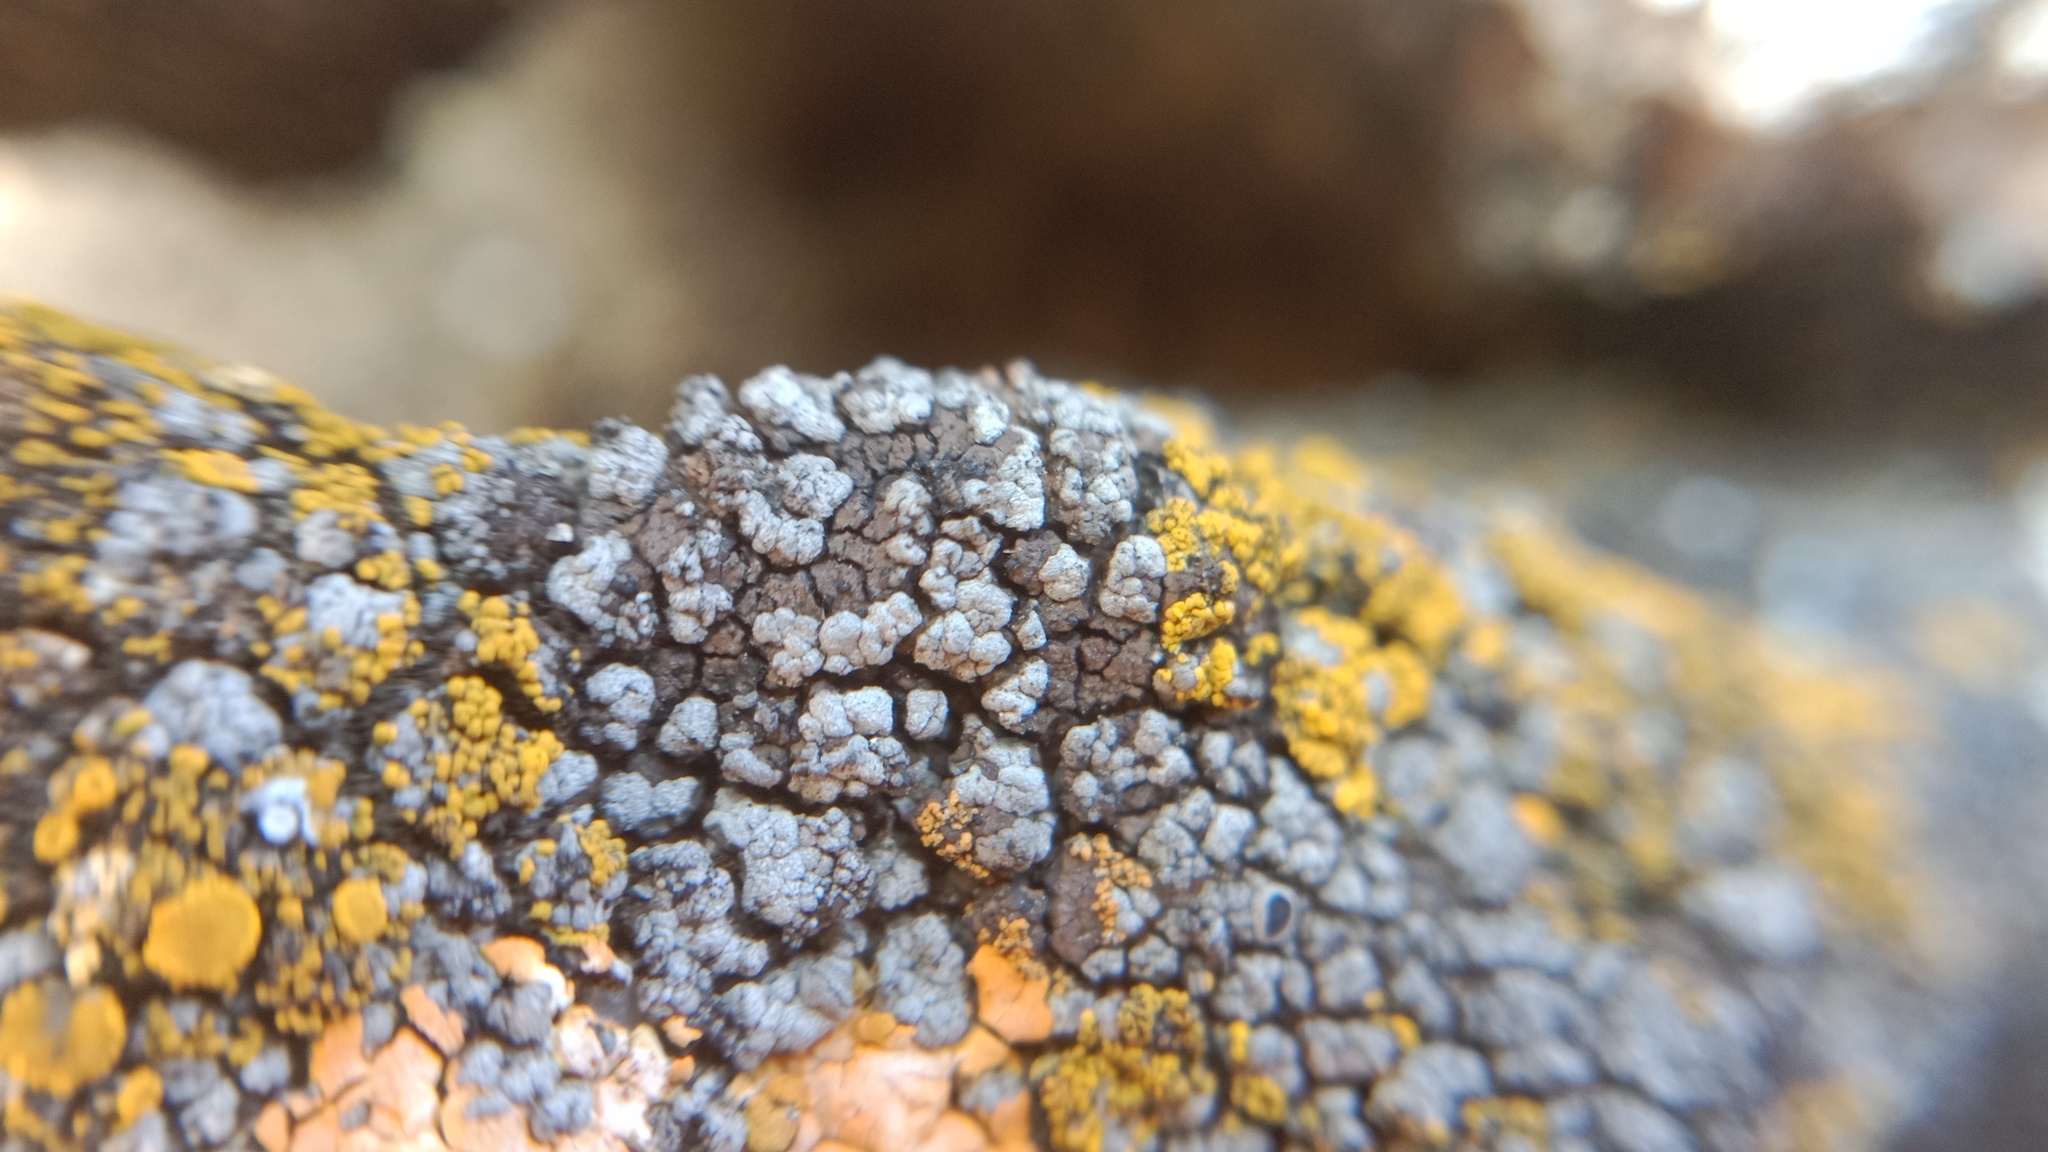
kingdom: Fungi
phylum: Ascomycota
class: Lecanoromycetes
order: Caliciales
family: Physciaceae
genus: Rinodina
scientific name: Rinodina calcarea
